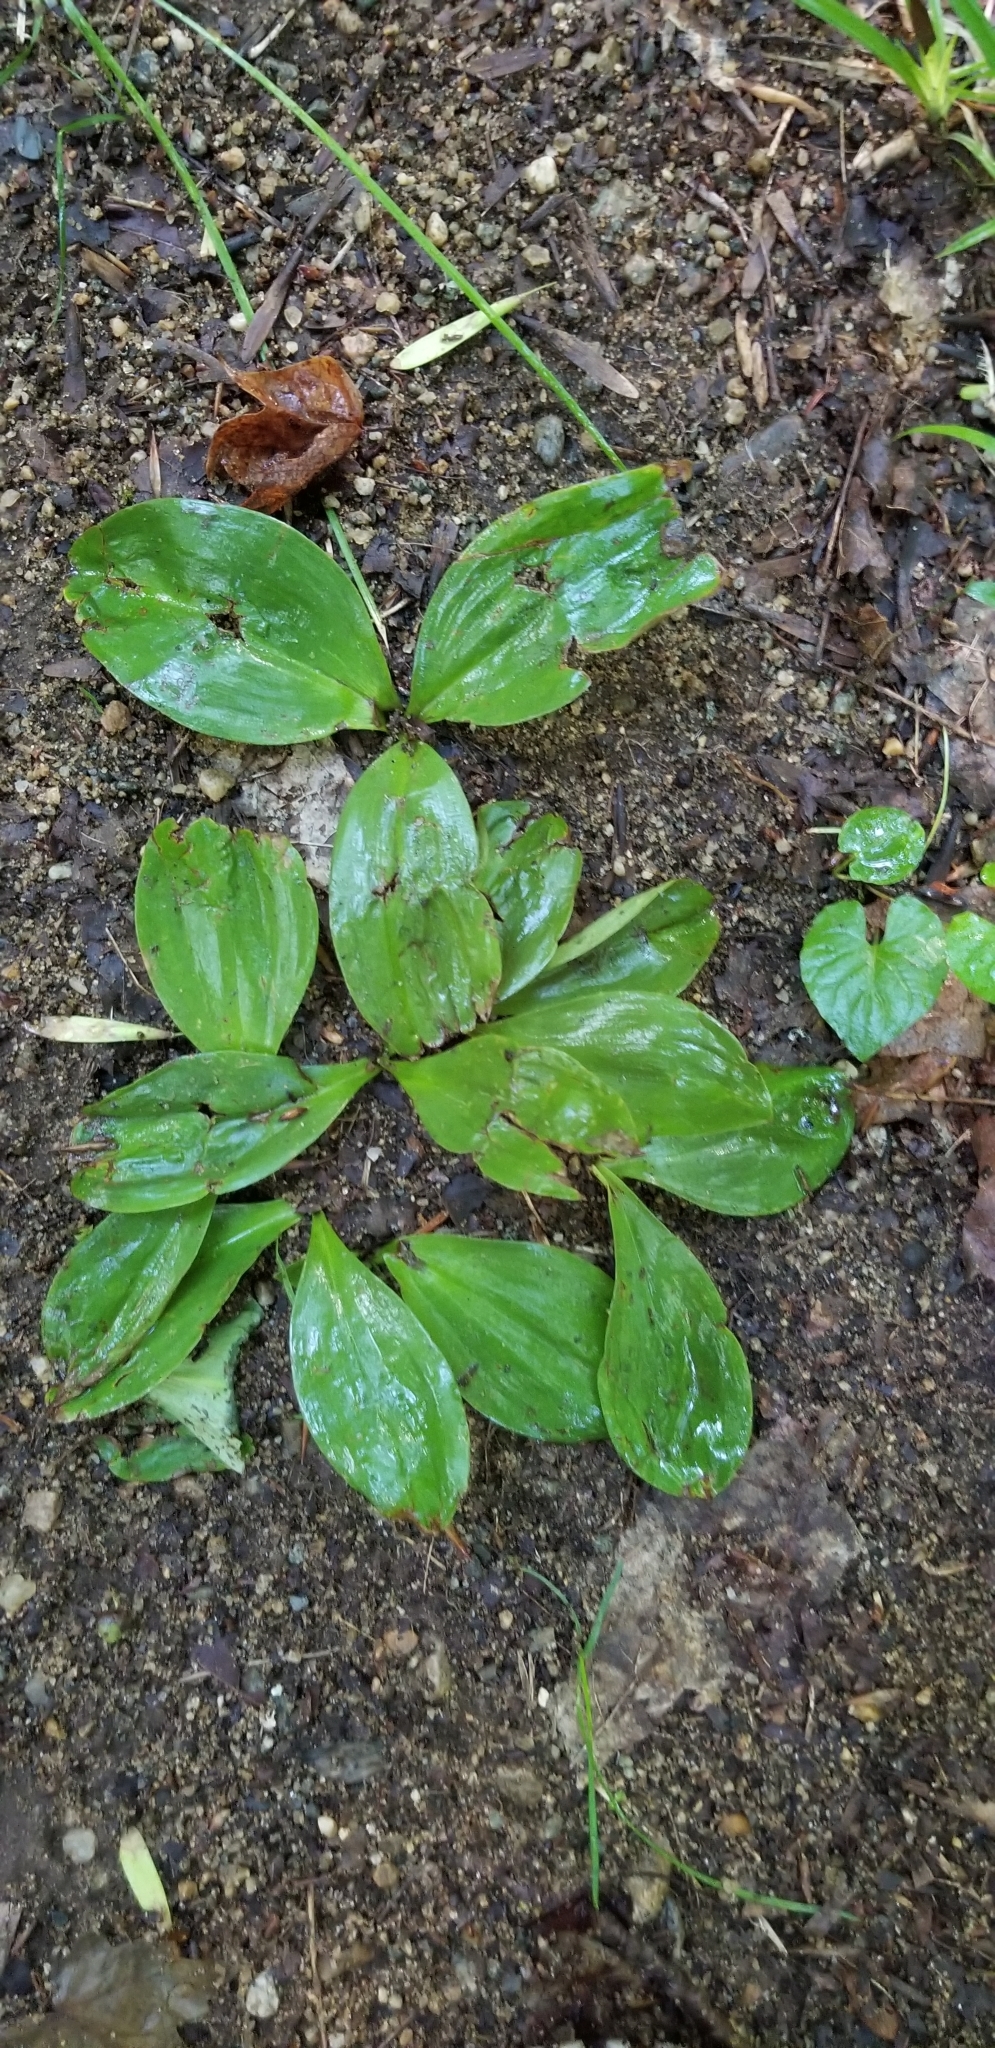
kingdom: Plantae
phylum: Tracheophyta
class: Liliopsida
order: Liliales
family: Liliaceae
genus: Clintonia
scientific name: Clintonia borealis
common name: Yellow clintonia
